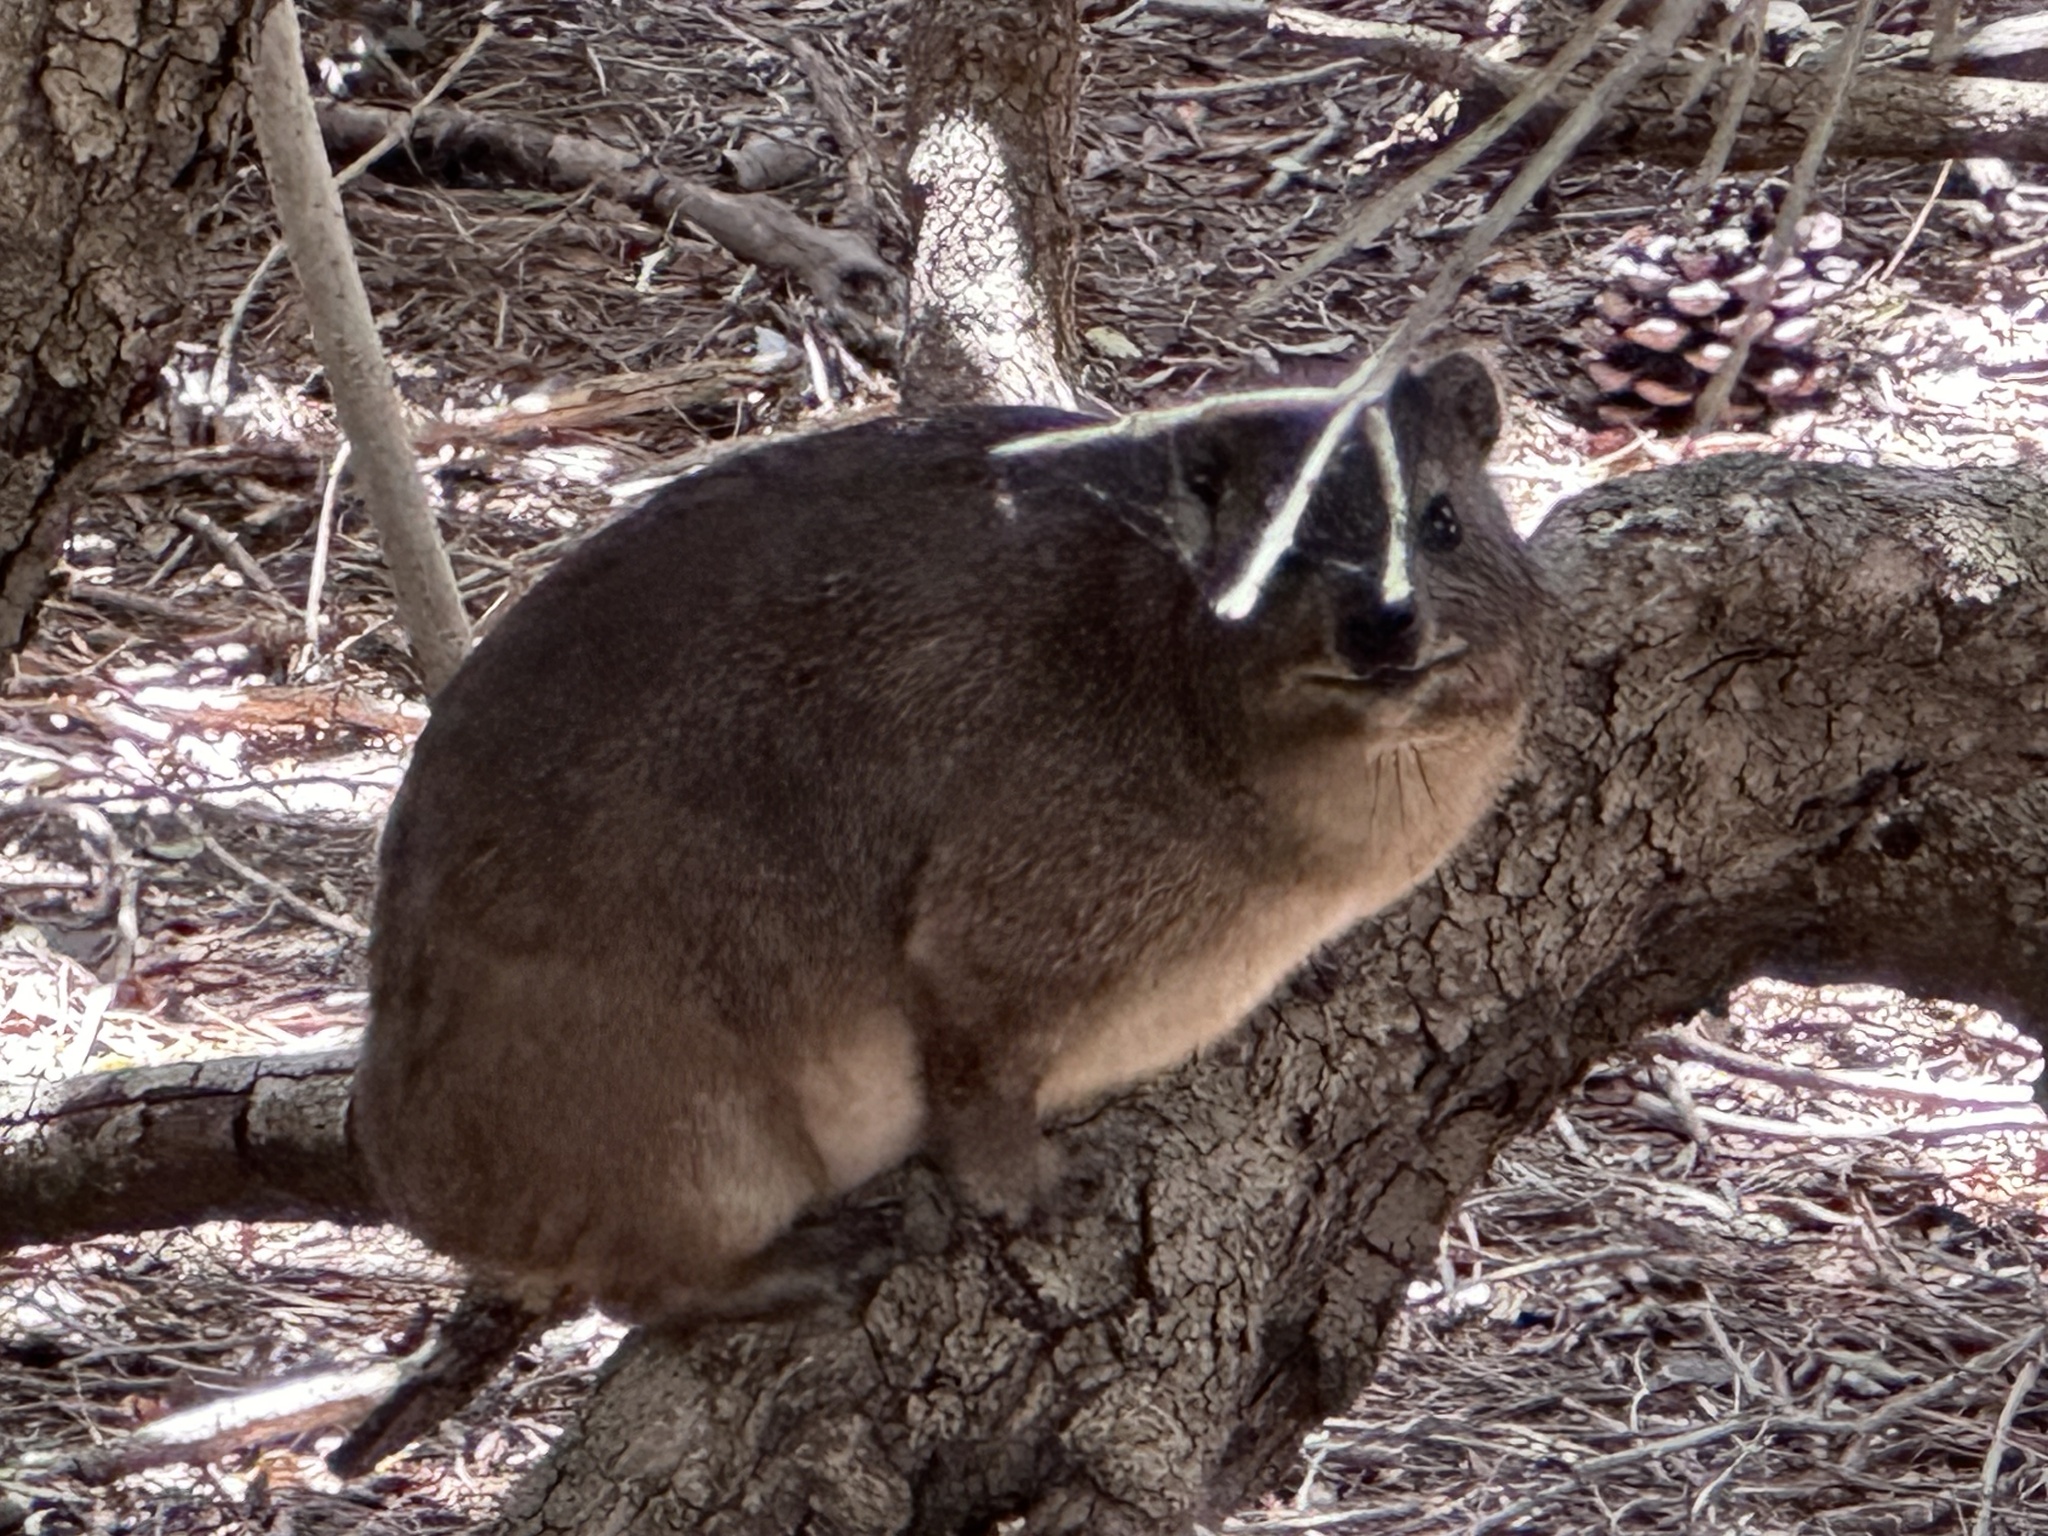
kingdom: Animalia
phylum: Chordata
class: Mammalia
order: Hyracoidea
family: Procaviidae
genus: Procavia
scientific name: Procavia capensis
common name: Rock hyrax
